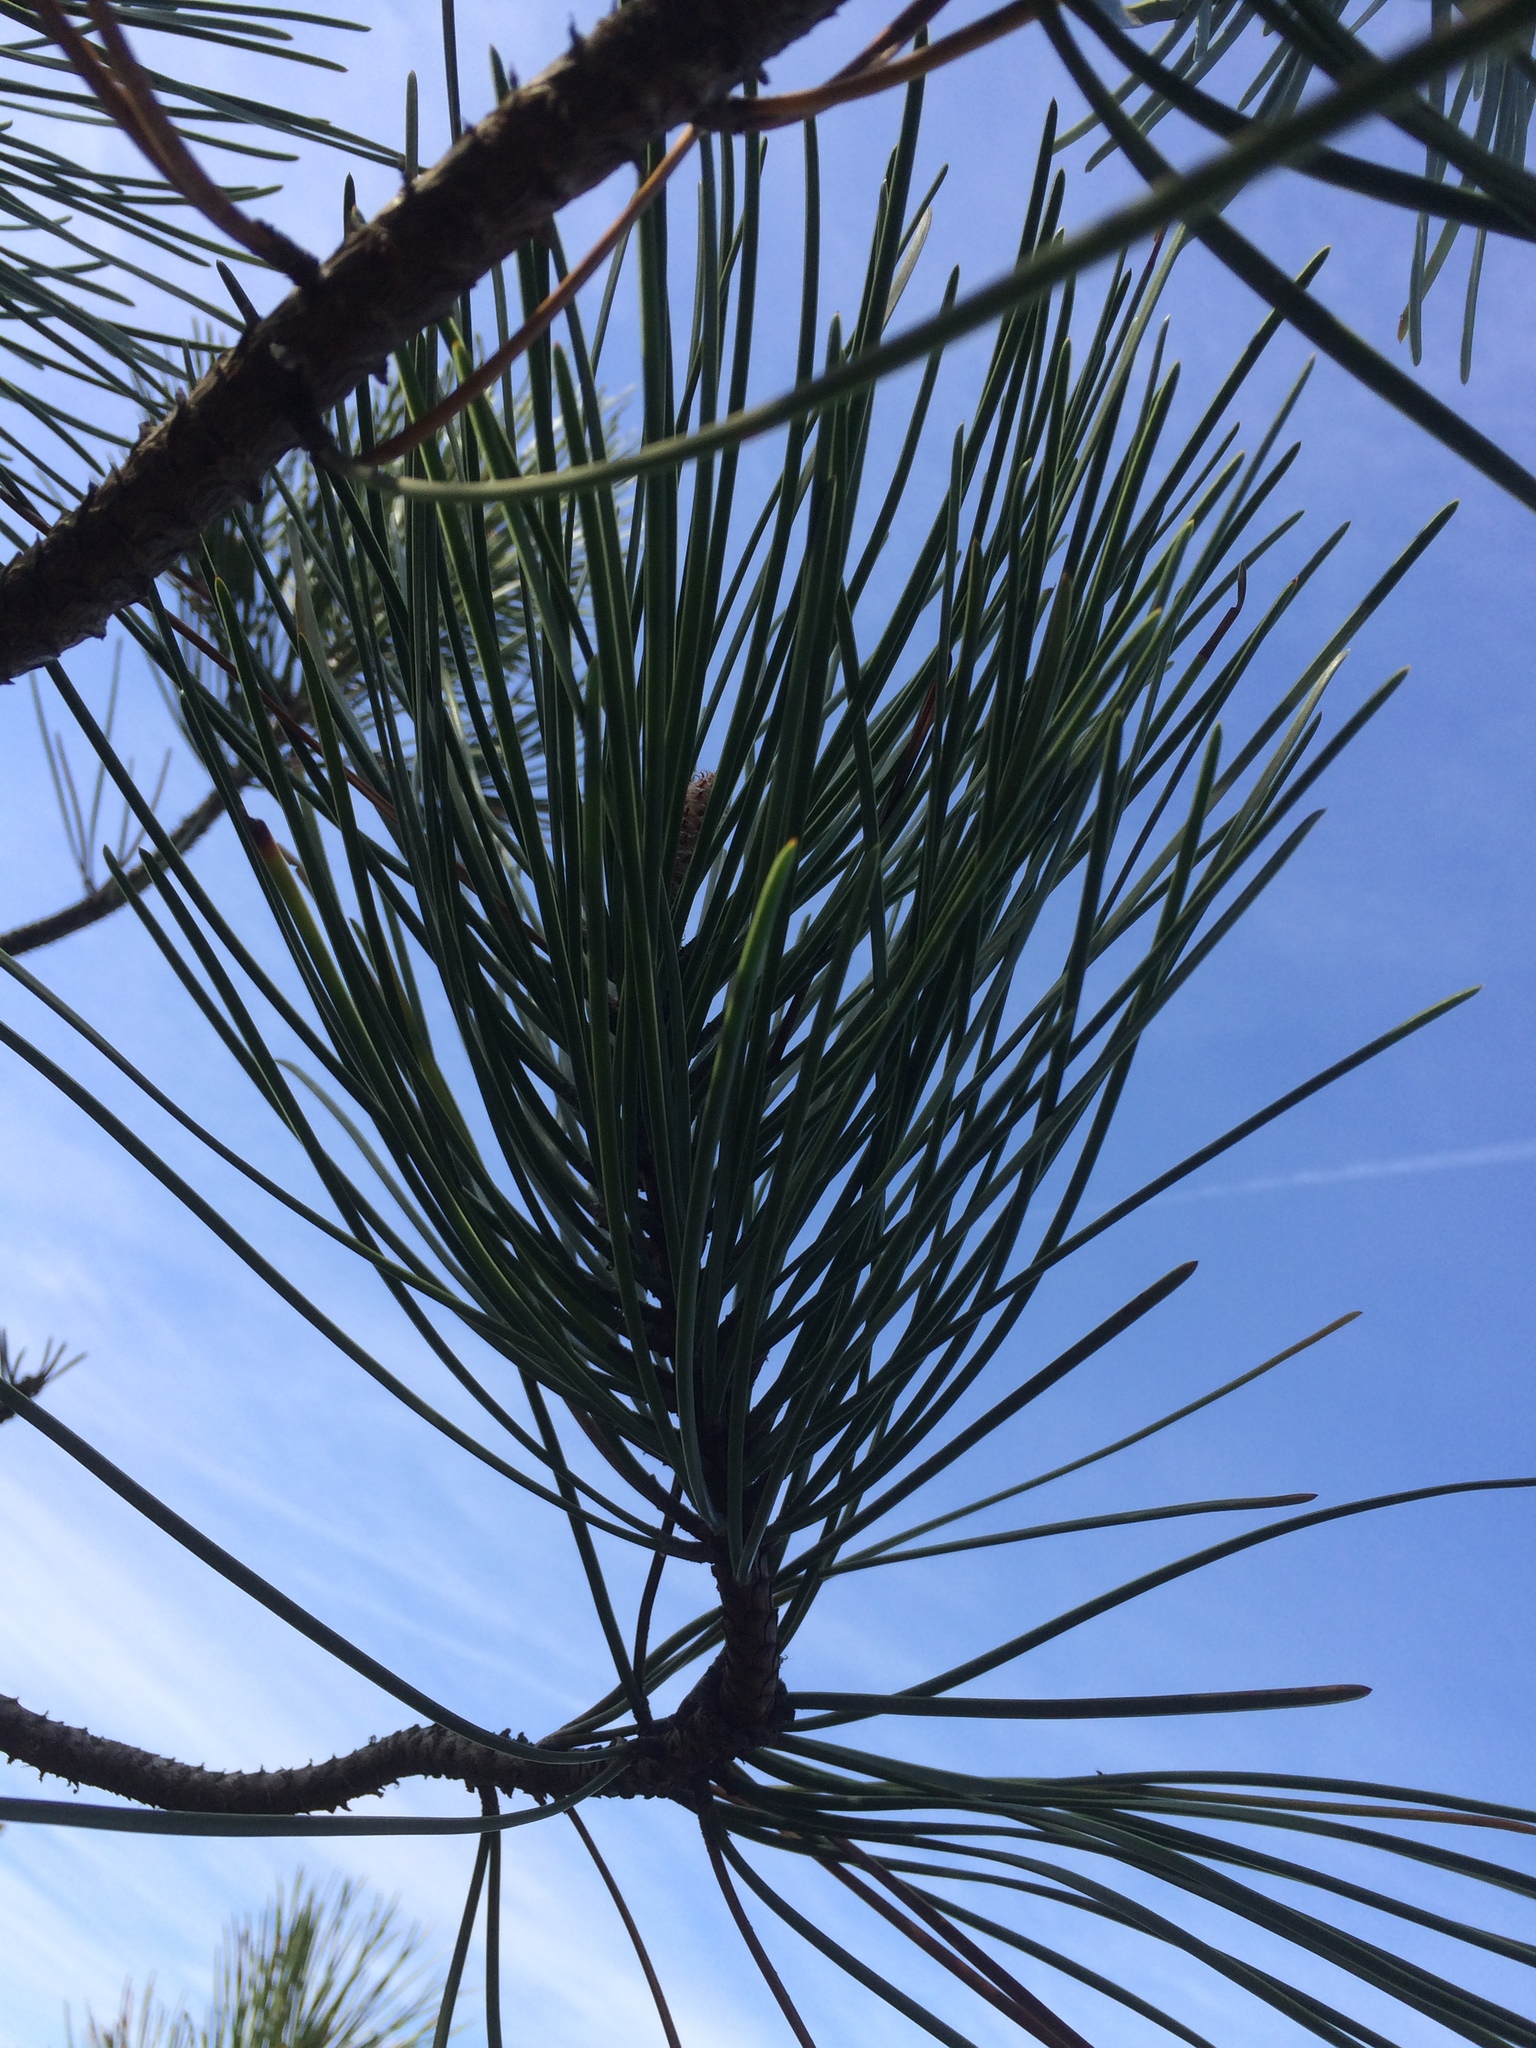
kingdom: Plantae
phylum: Tracheophyta
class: Pinopsida
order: Pinales
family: Pinaceae
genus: Pinus
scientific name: Pinus pinaster
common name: Maritime pine
